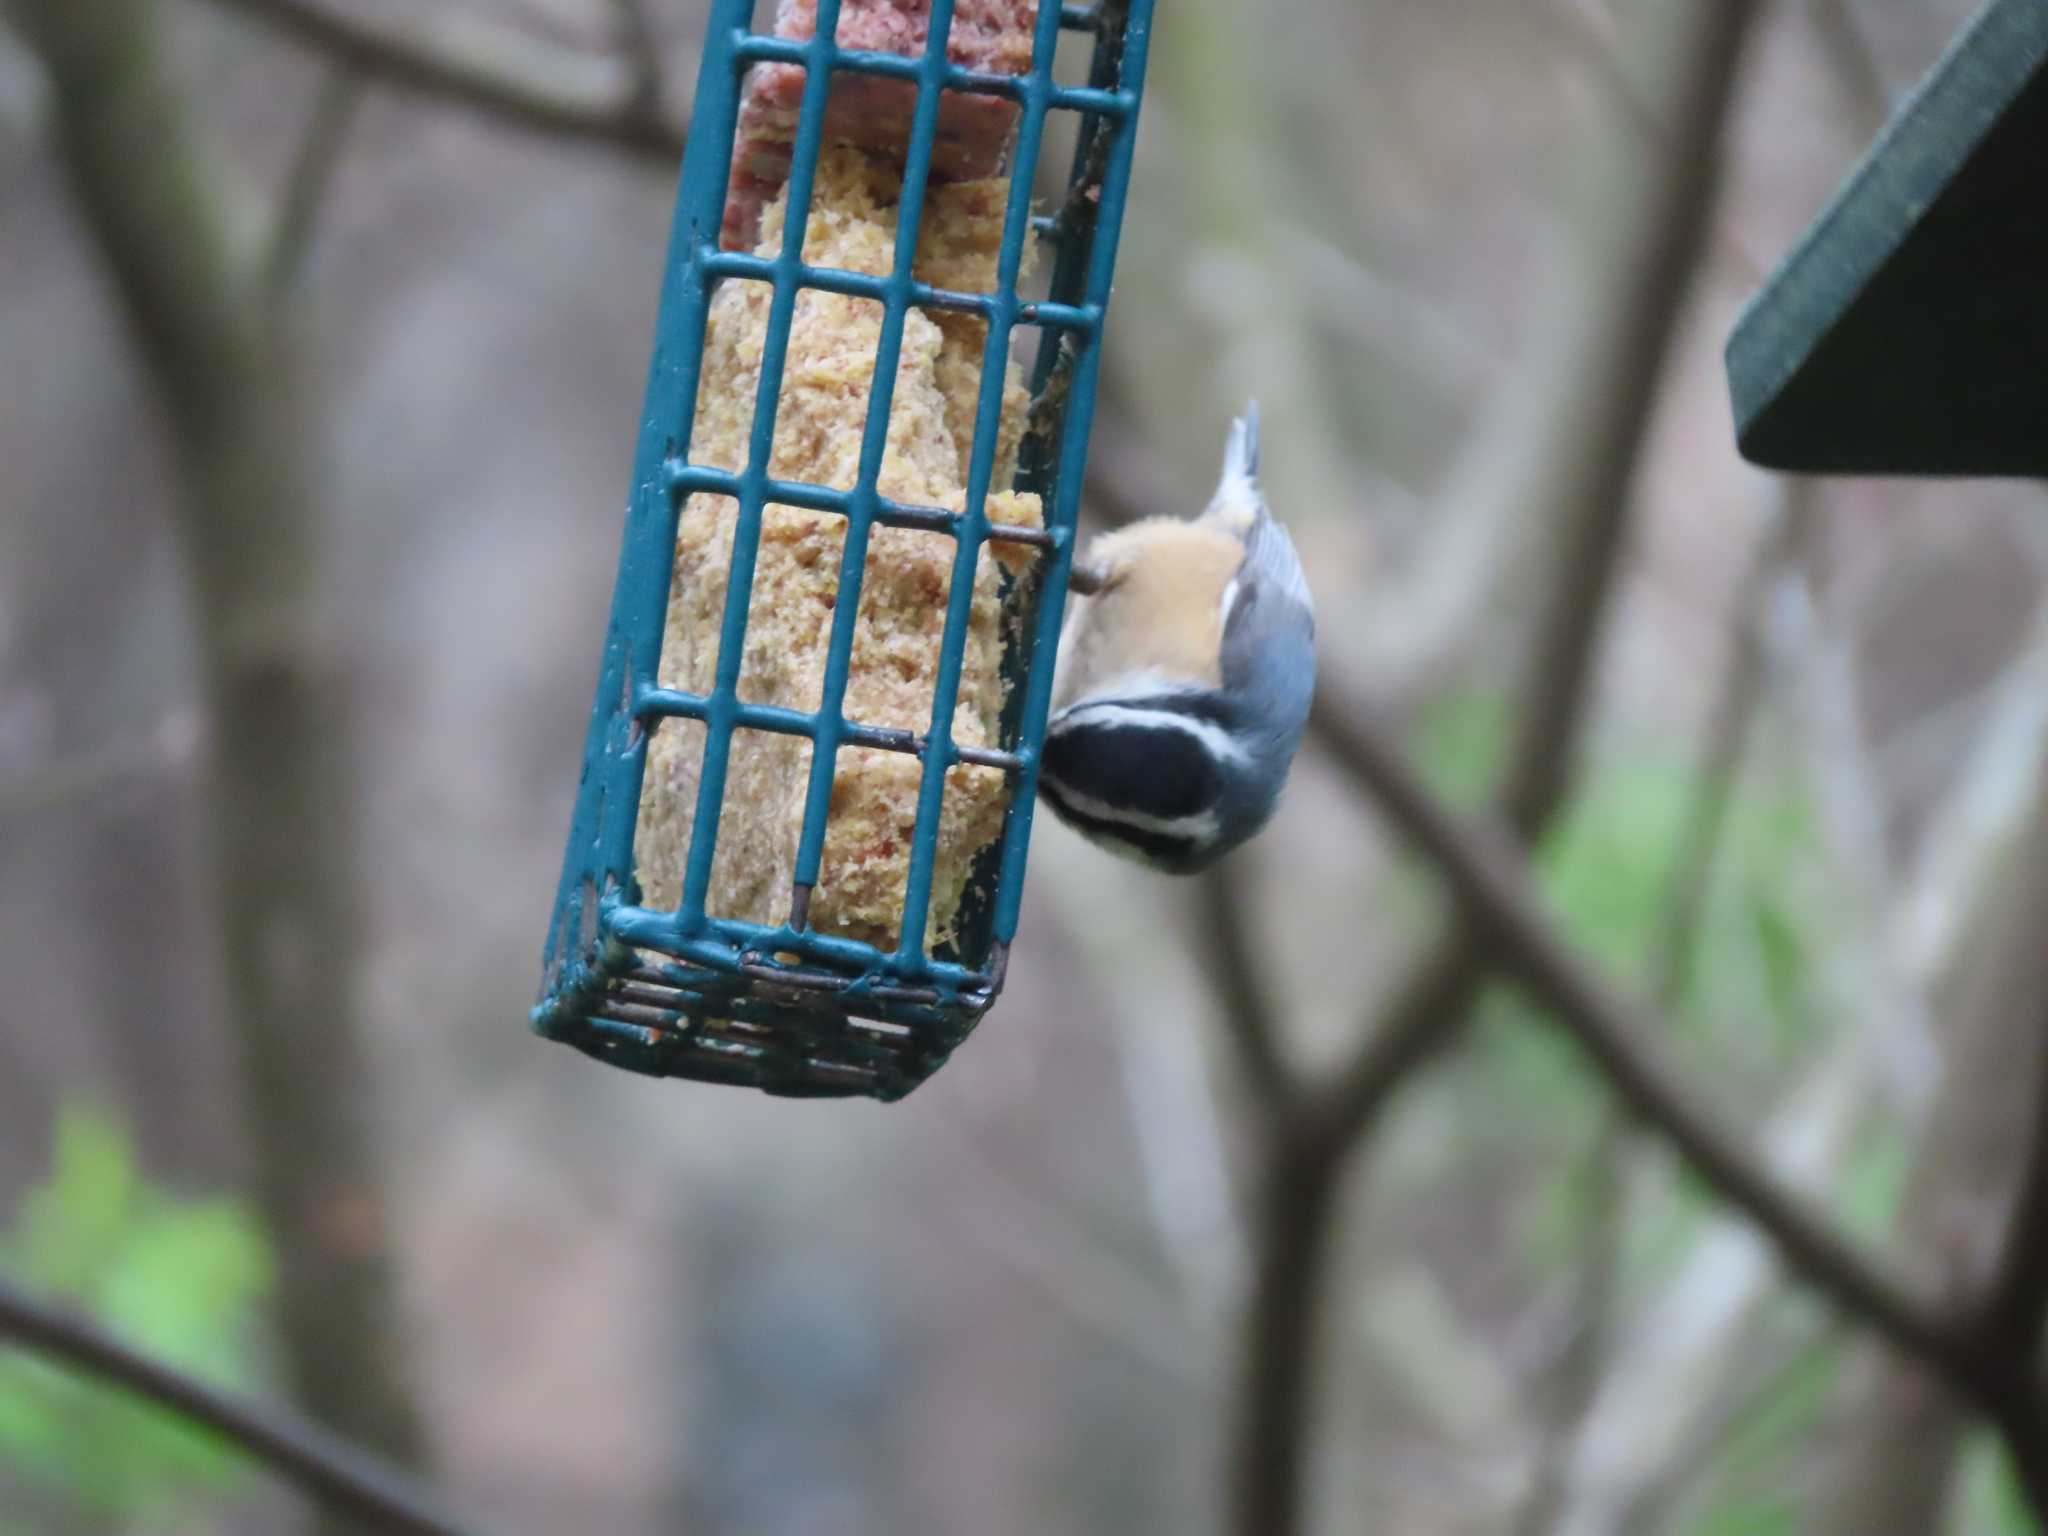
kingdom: Animalia
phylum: Chordata
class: Aves
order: Passeriformes
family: Sittidae
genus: Sitta
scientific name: Sitta canadensis
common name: Red-breasted nuthatch
